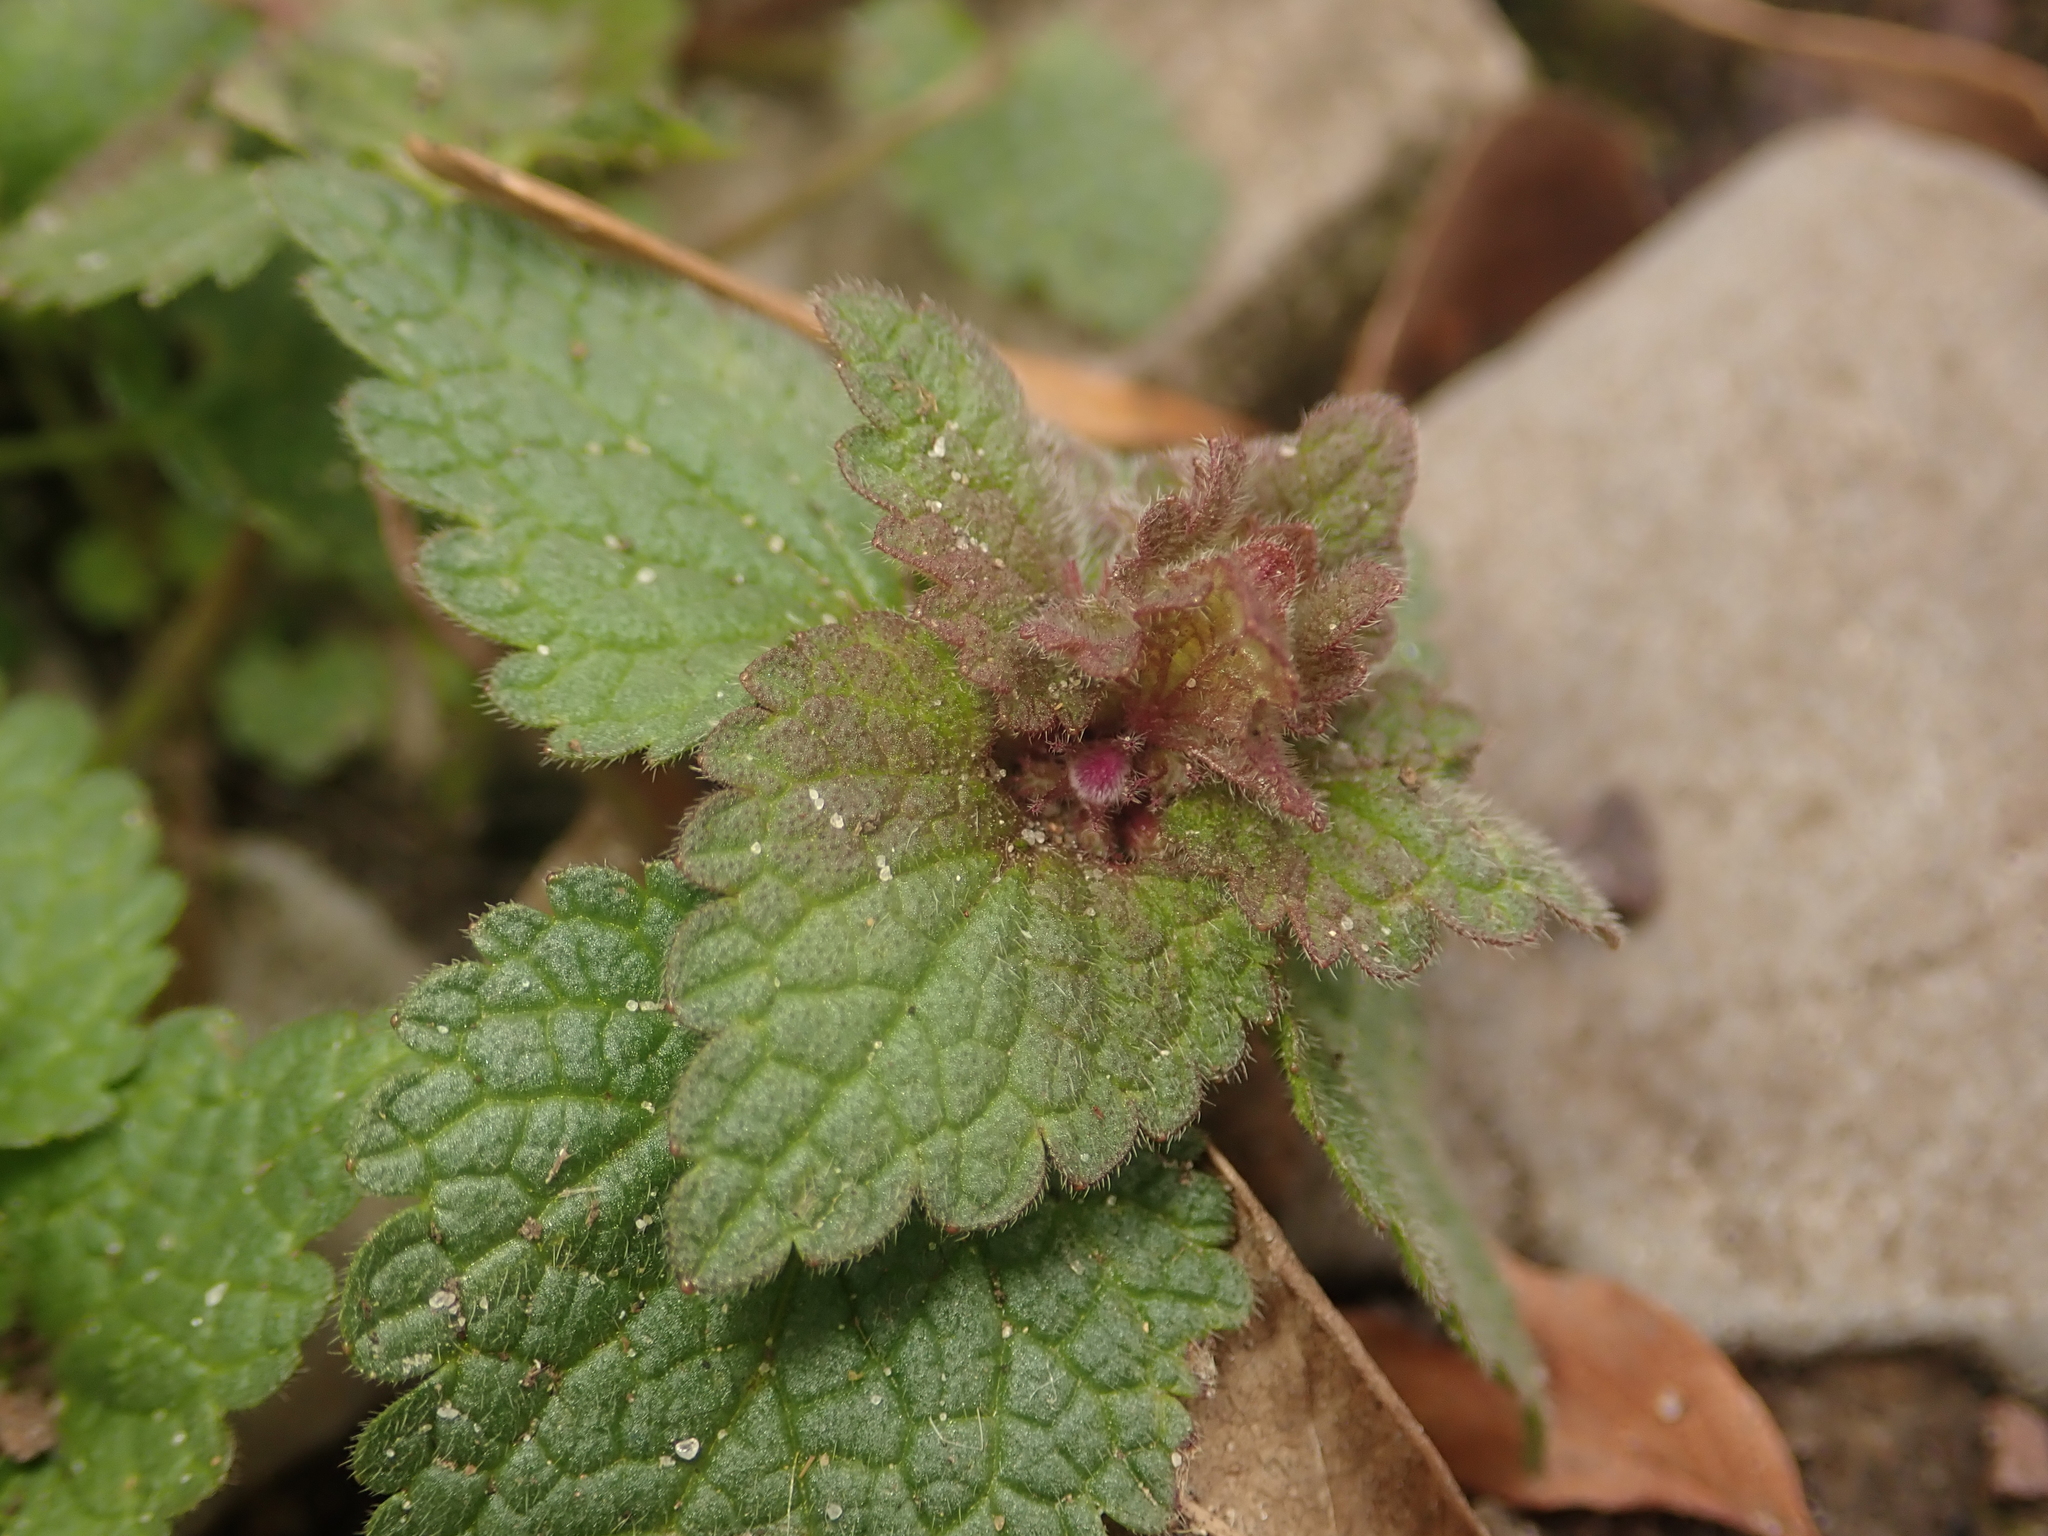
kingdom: Plantae
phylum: Tracheophyta
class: Magnoliopsida
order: Lamiales
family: Lamiaceae
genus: Lamium
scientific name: Lamium purpureum
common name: Red dead-nettle
